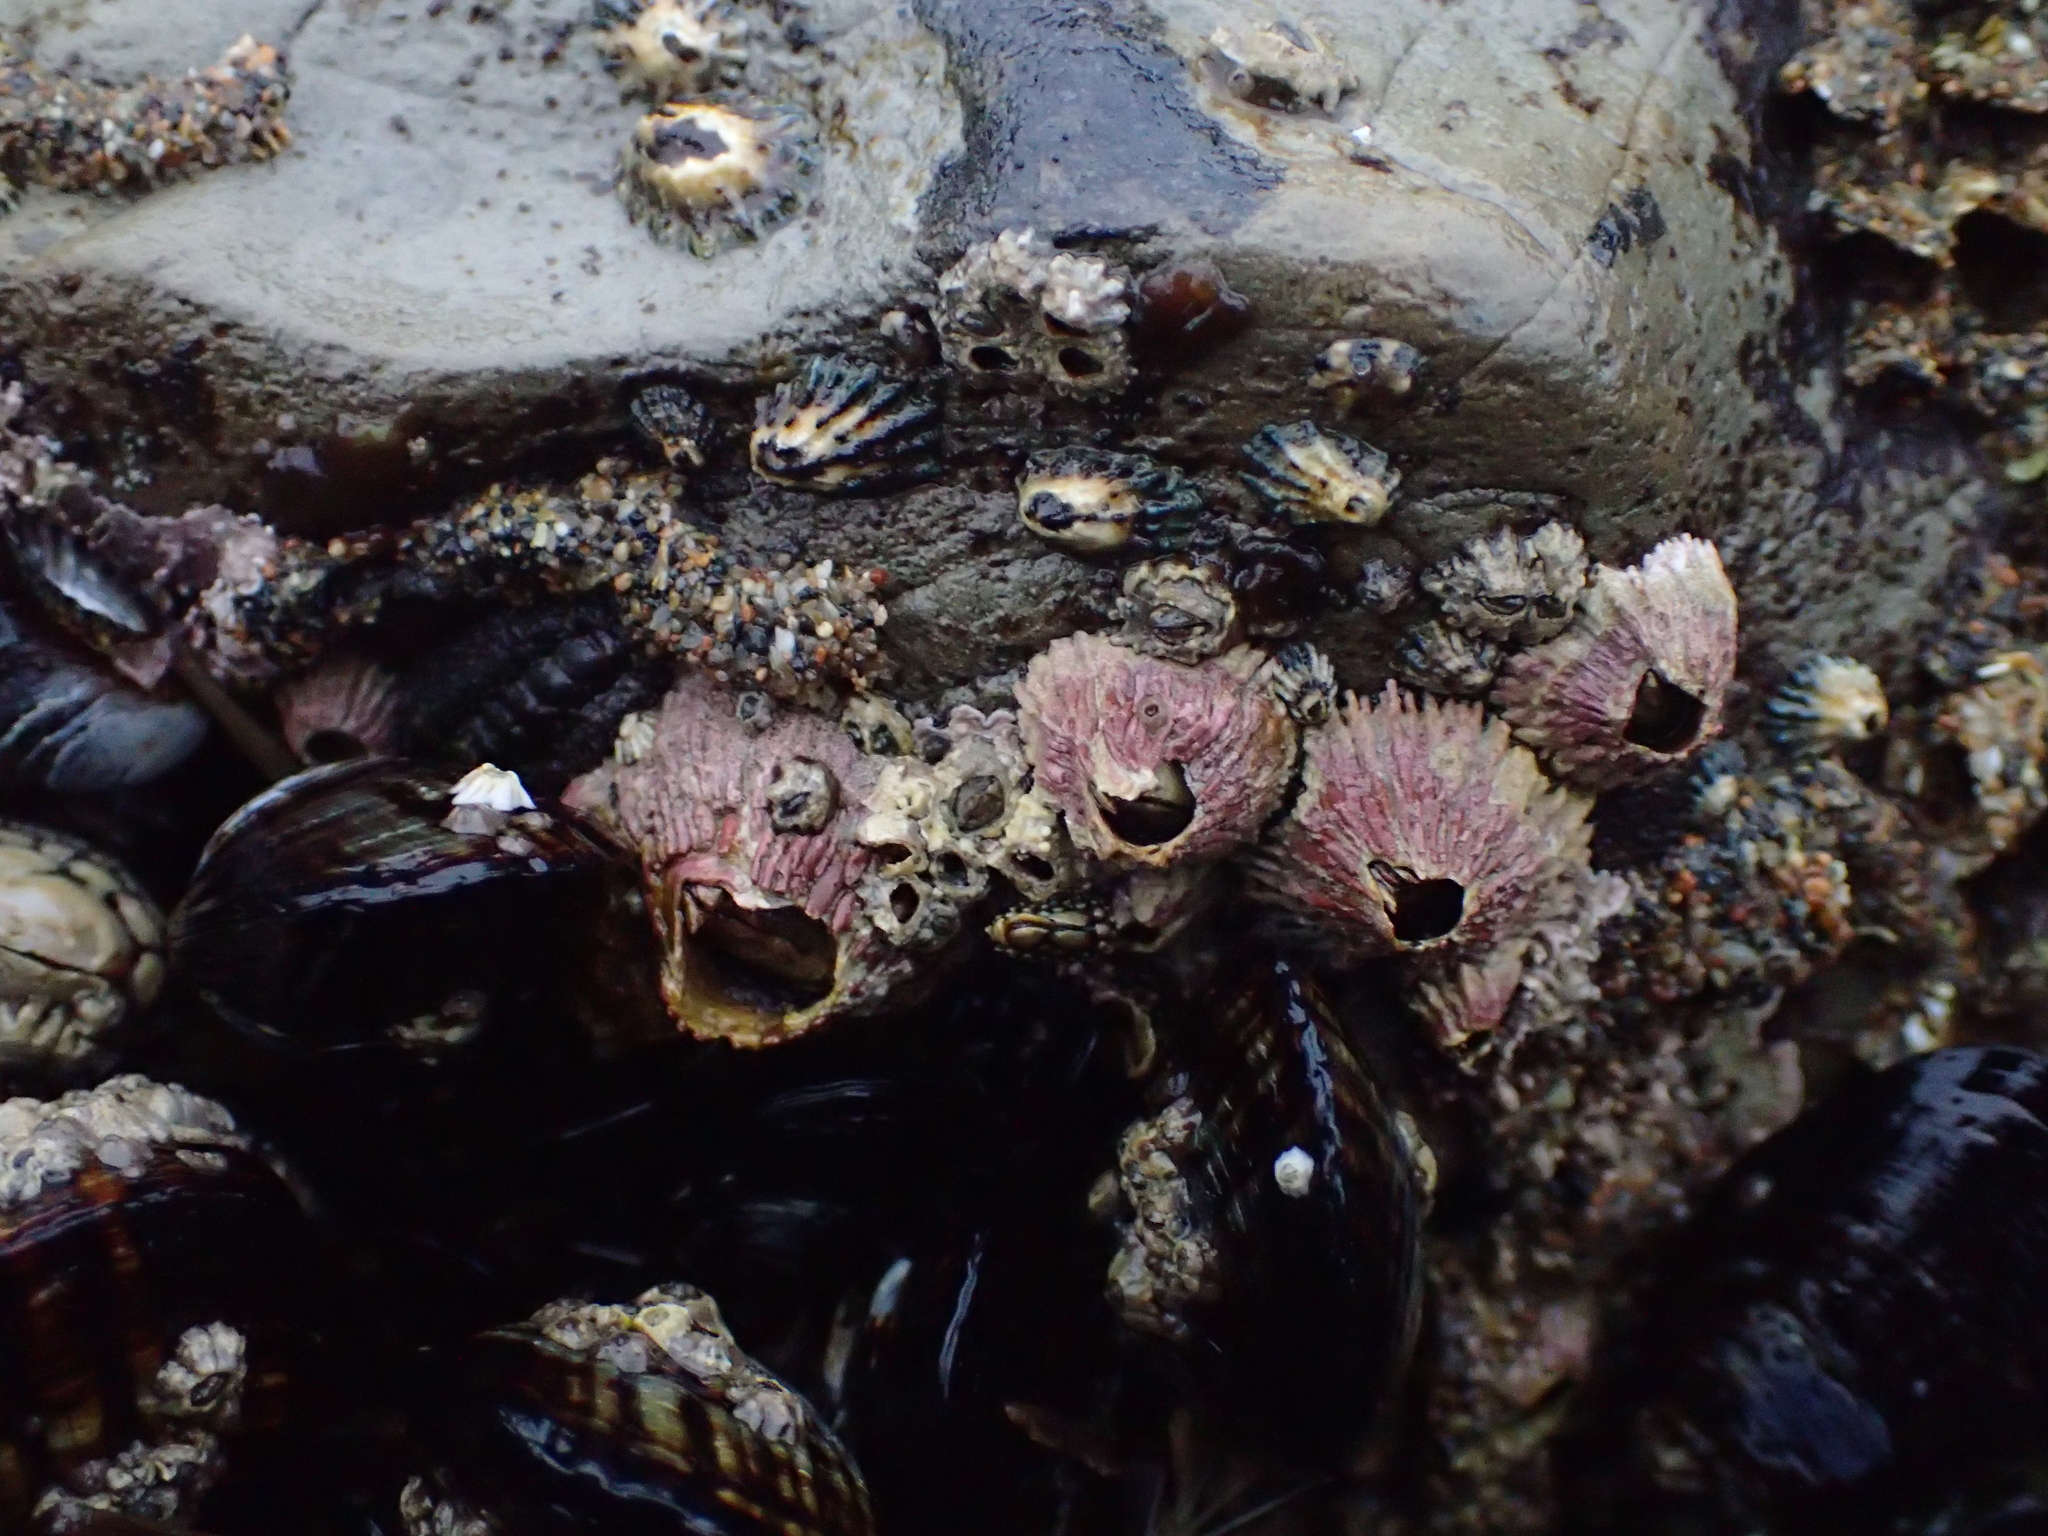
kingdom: Animalia
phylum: Arthropoda
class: Maxillopoda
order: Sessilia
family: Tetraclitidae
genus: Tetraclita
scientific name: Tetraclita rubescens
